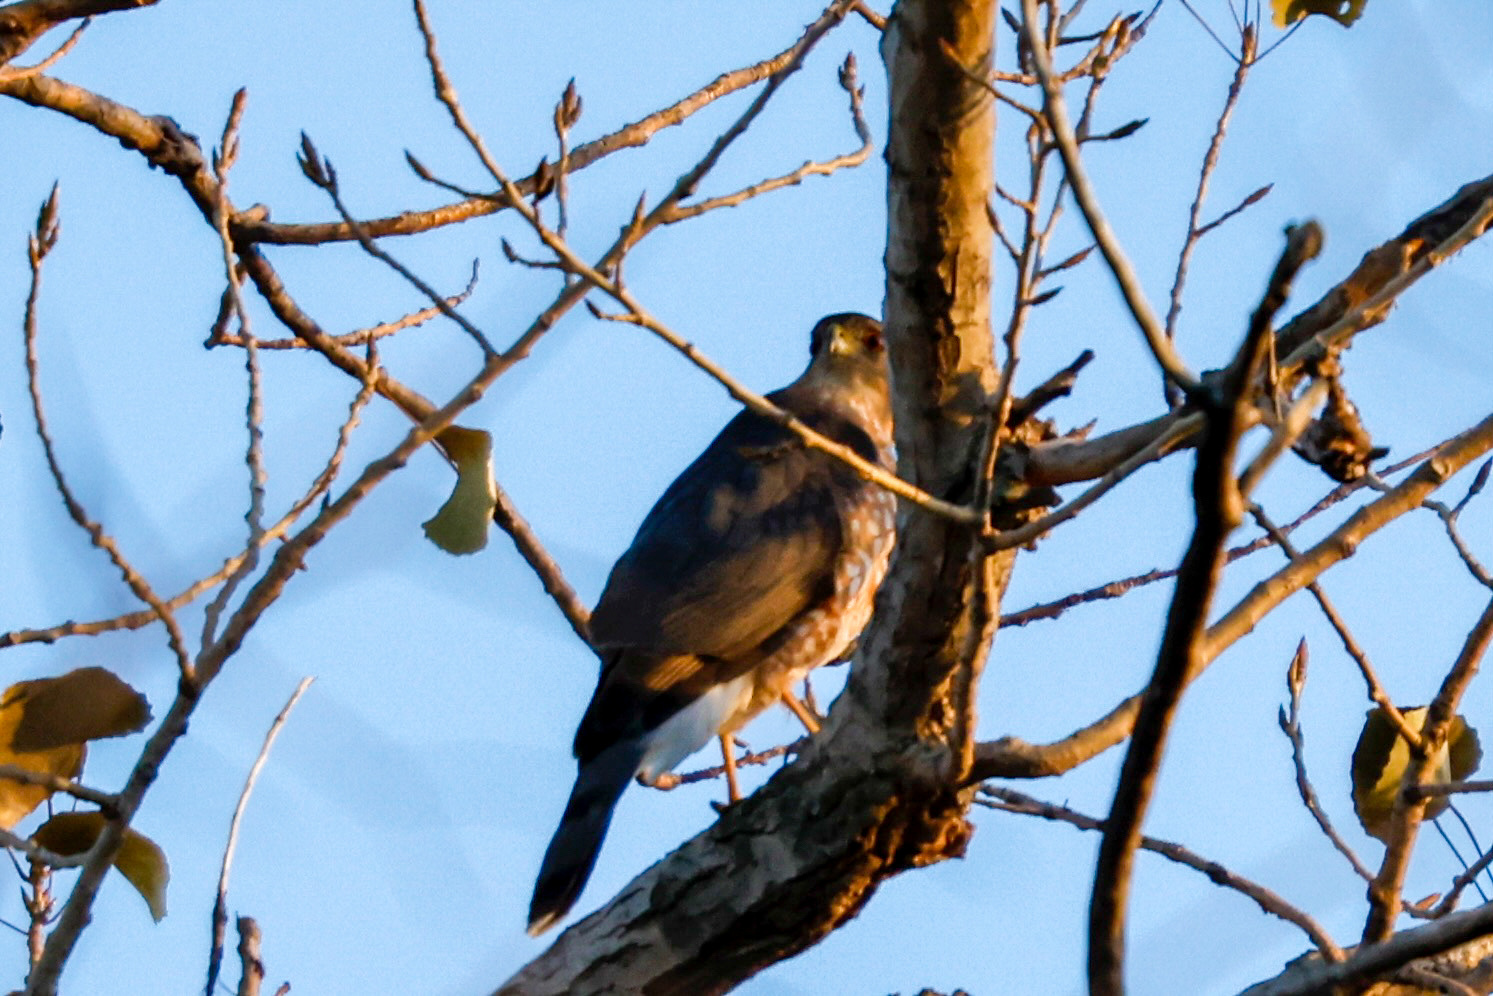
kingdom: Animalia
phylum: Chordata
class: Aves
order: Accipitriformes
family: Accipitridae
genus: Accipiter
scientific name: Accipiter cooperii
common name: Cooper's hawk
